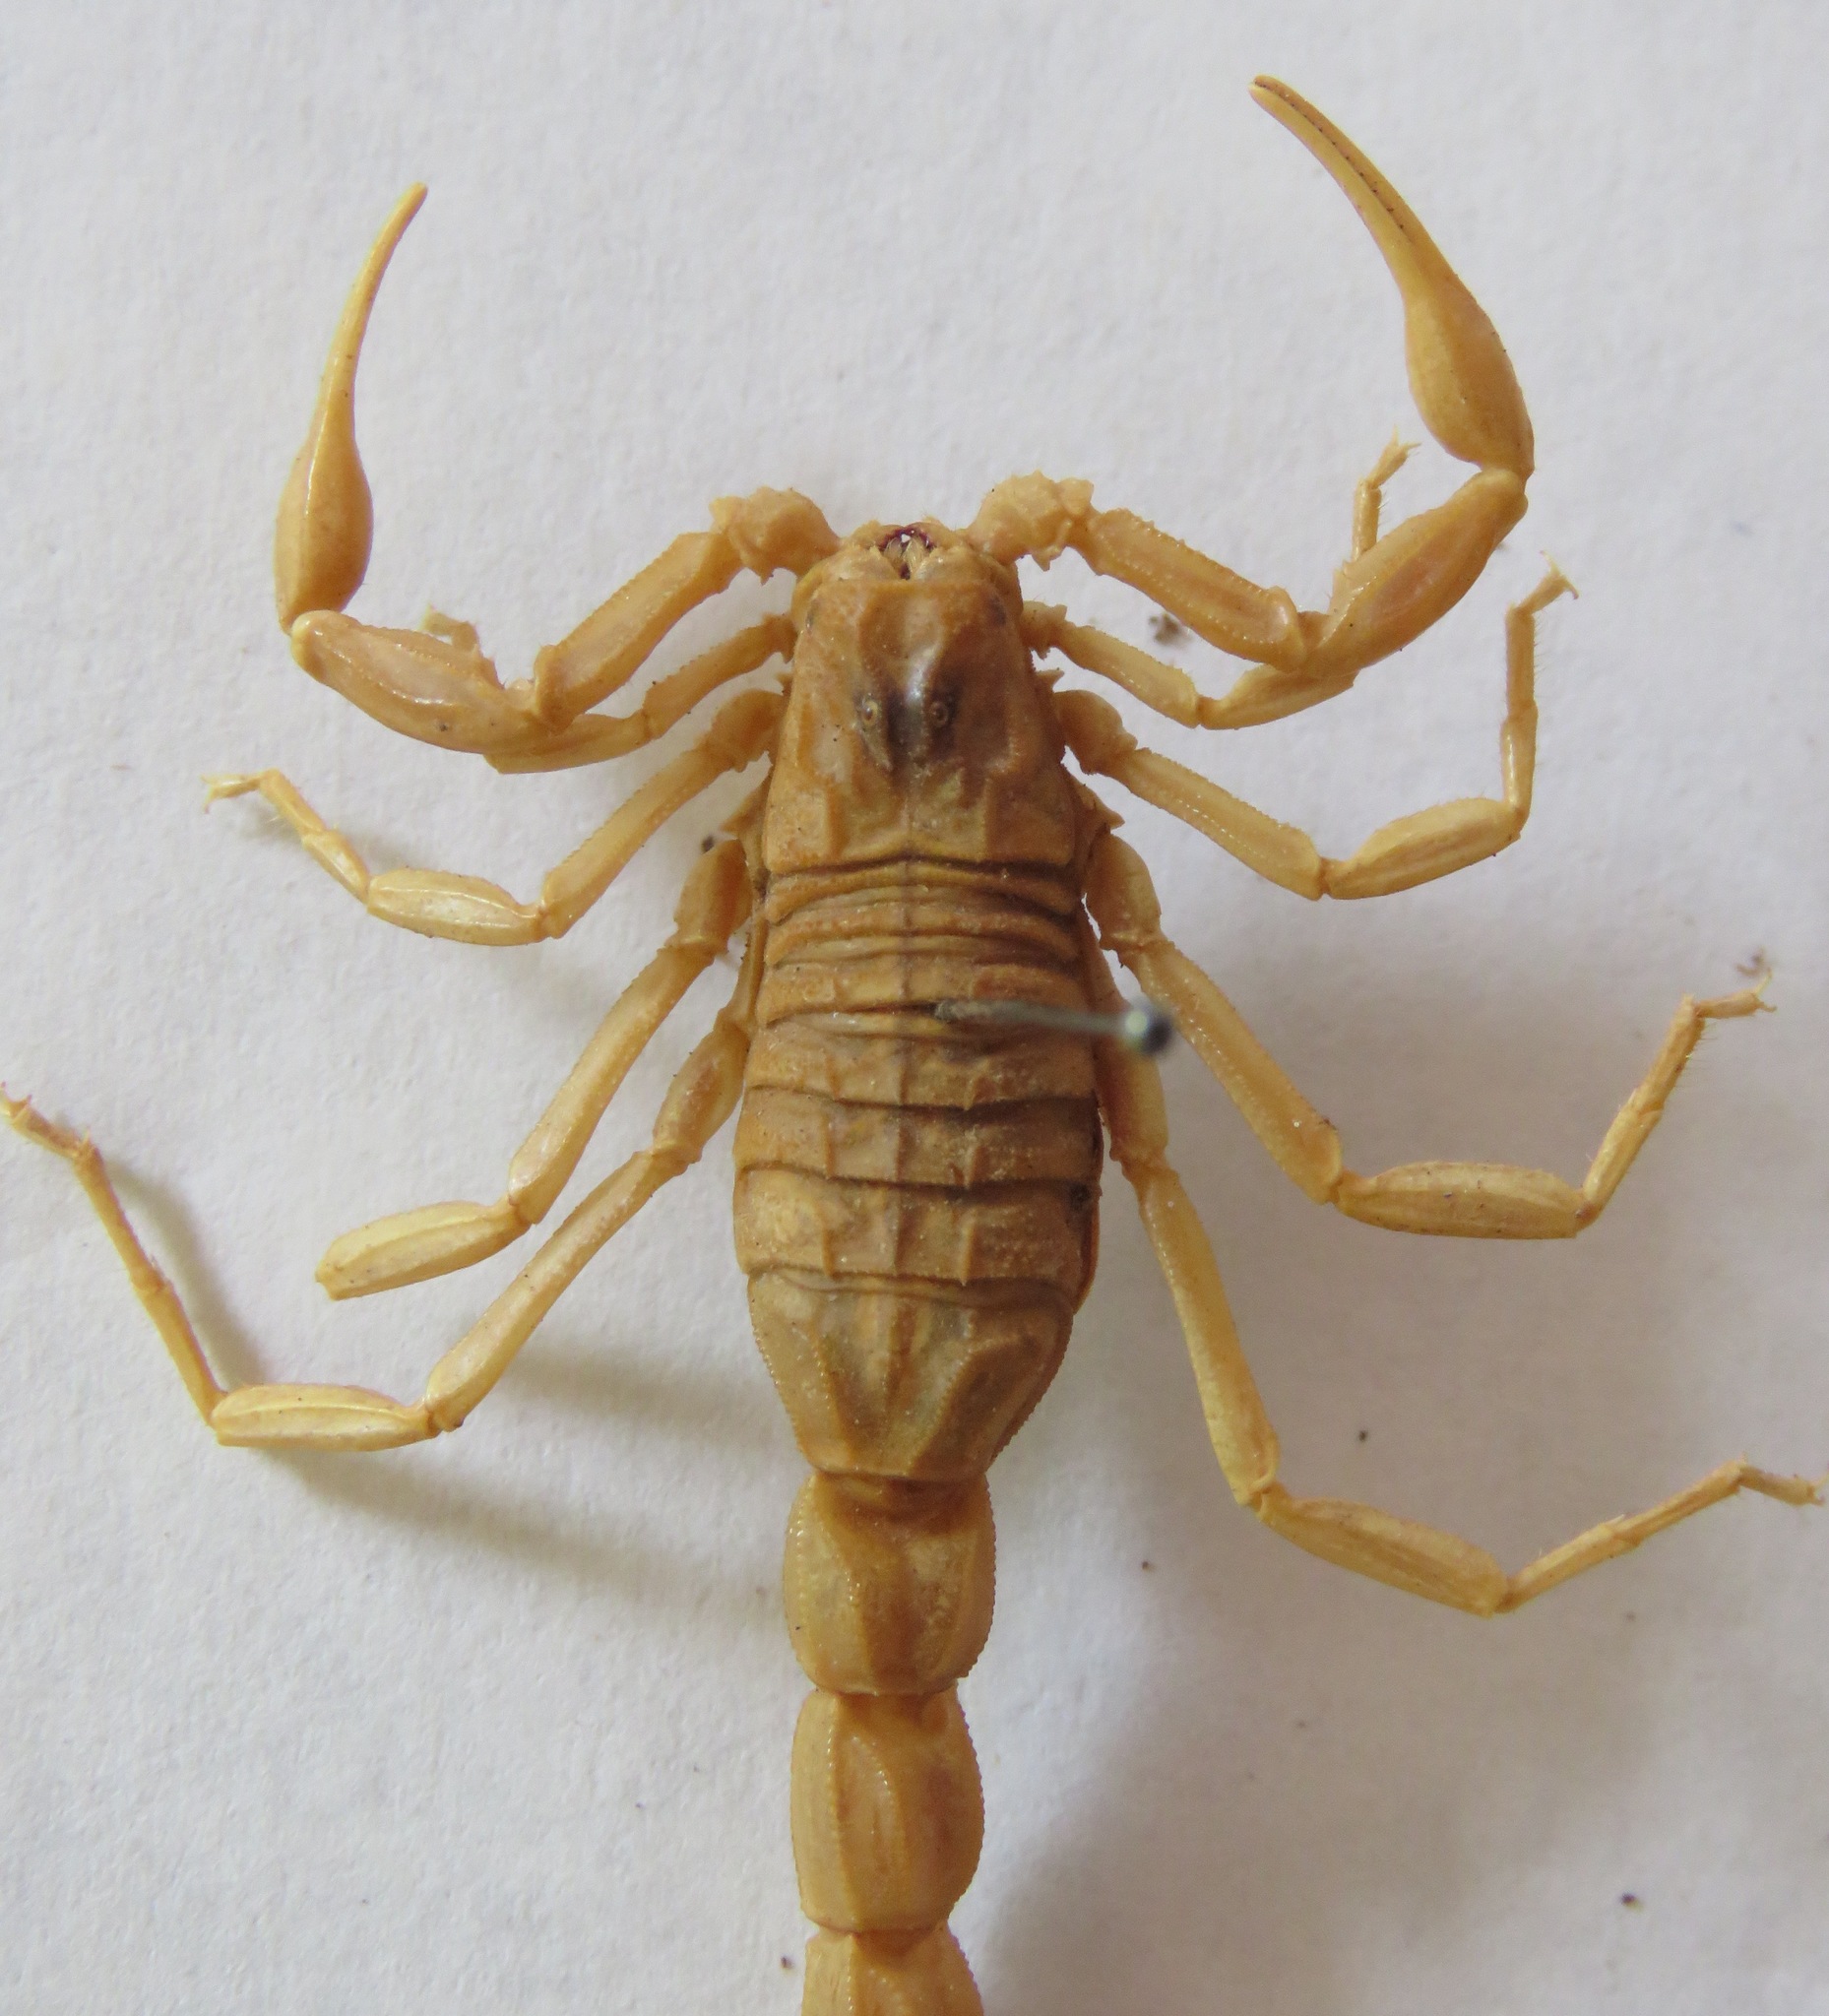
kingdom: Animalia
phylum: Arthropoda
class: Arachnida
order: Scorpiones
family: Buthidae
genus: Buthus
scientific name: Buthus occitanus
